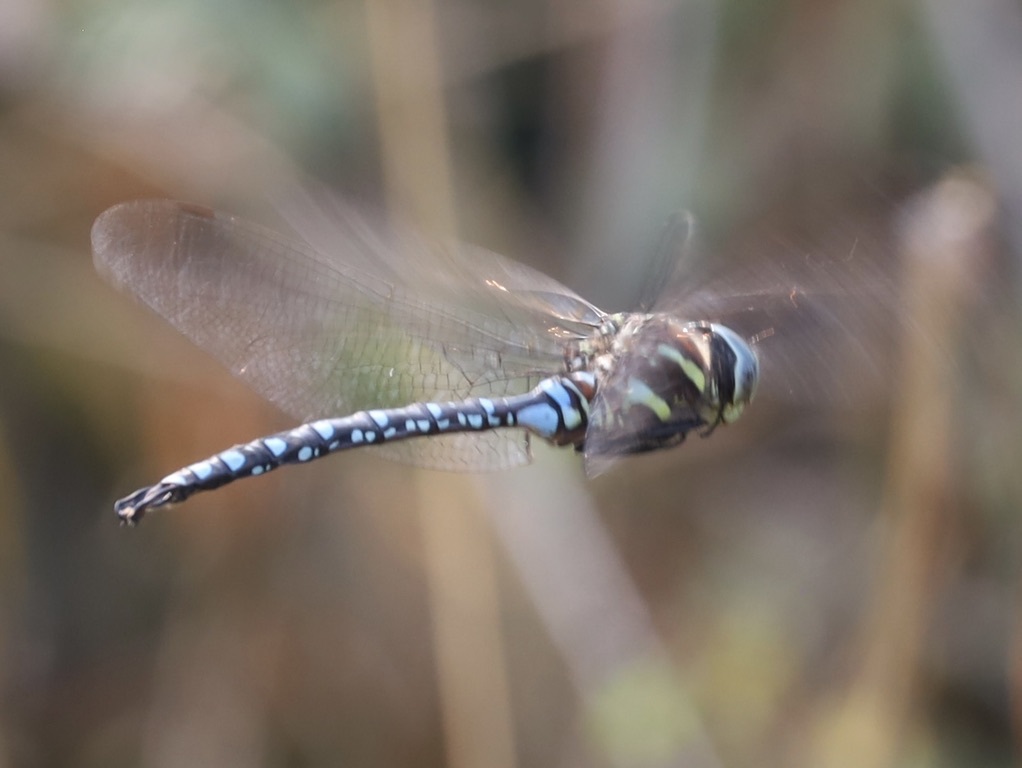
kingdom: Animalia
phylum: Arthropoda
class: Insecta
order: Odonata
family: Aeshnidae
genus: Aeshna
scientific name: Aeshna palmata
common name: Paddle-tailed darner
